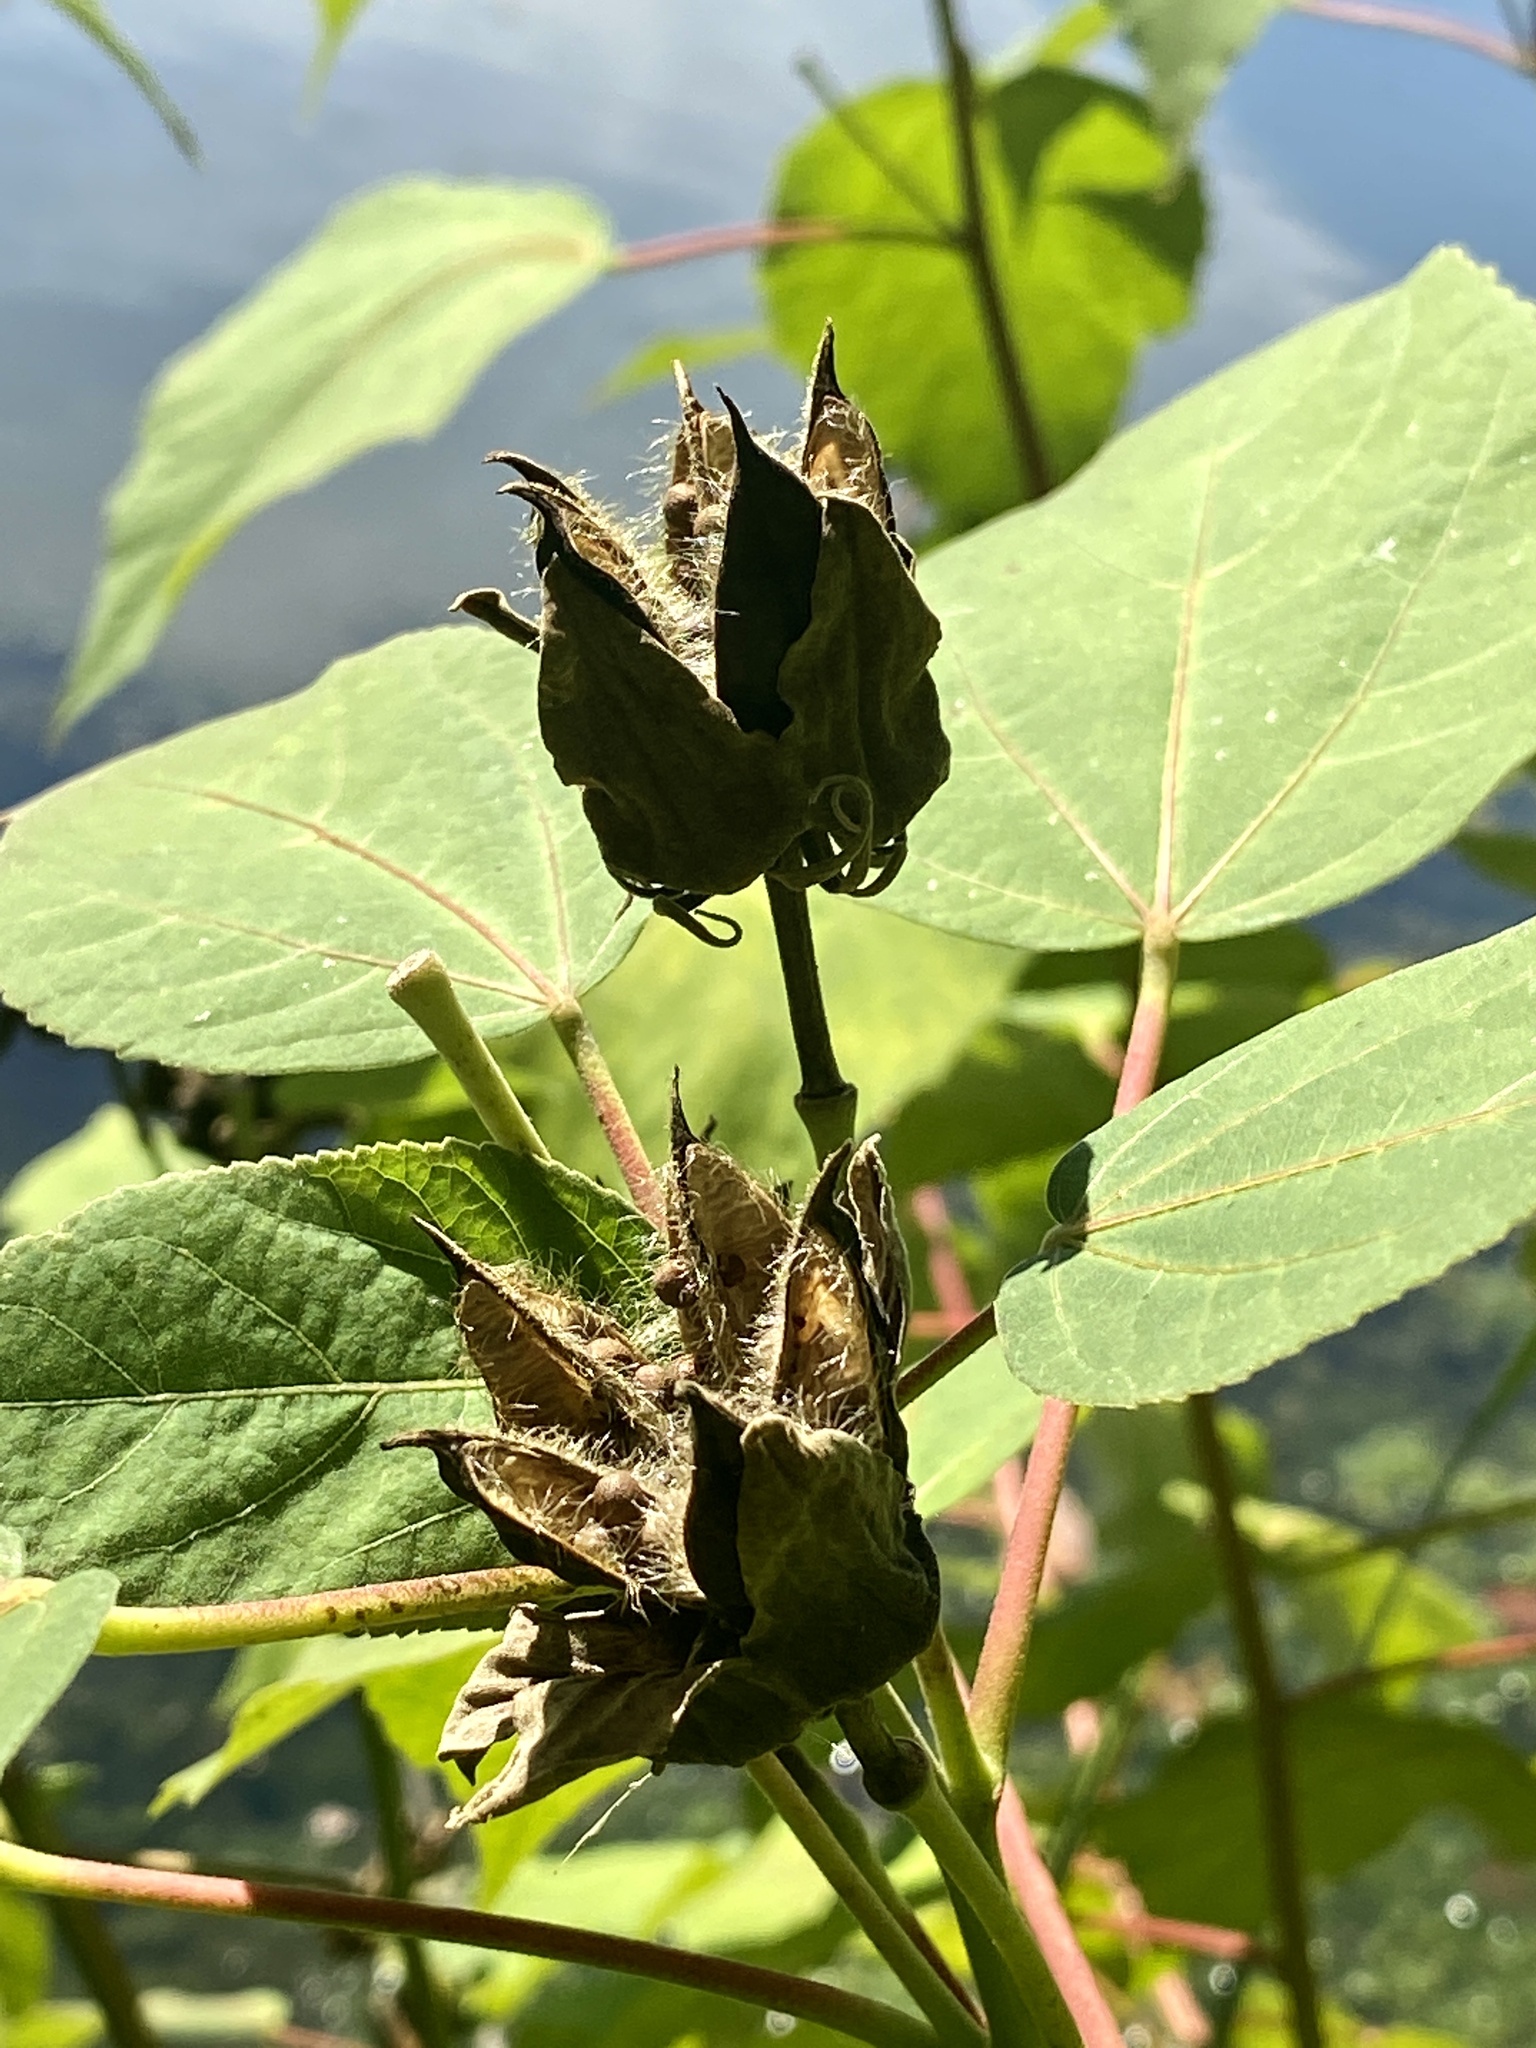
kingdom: Plantae
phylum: Tracheophyta
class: Magnoliopsida
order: Malvales
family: Malvaceae
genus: Hibiscus
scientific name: Hibiscus moscheutos
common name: Common rose-mallow
